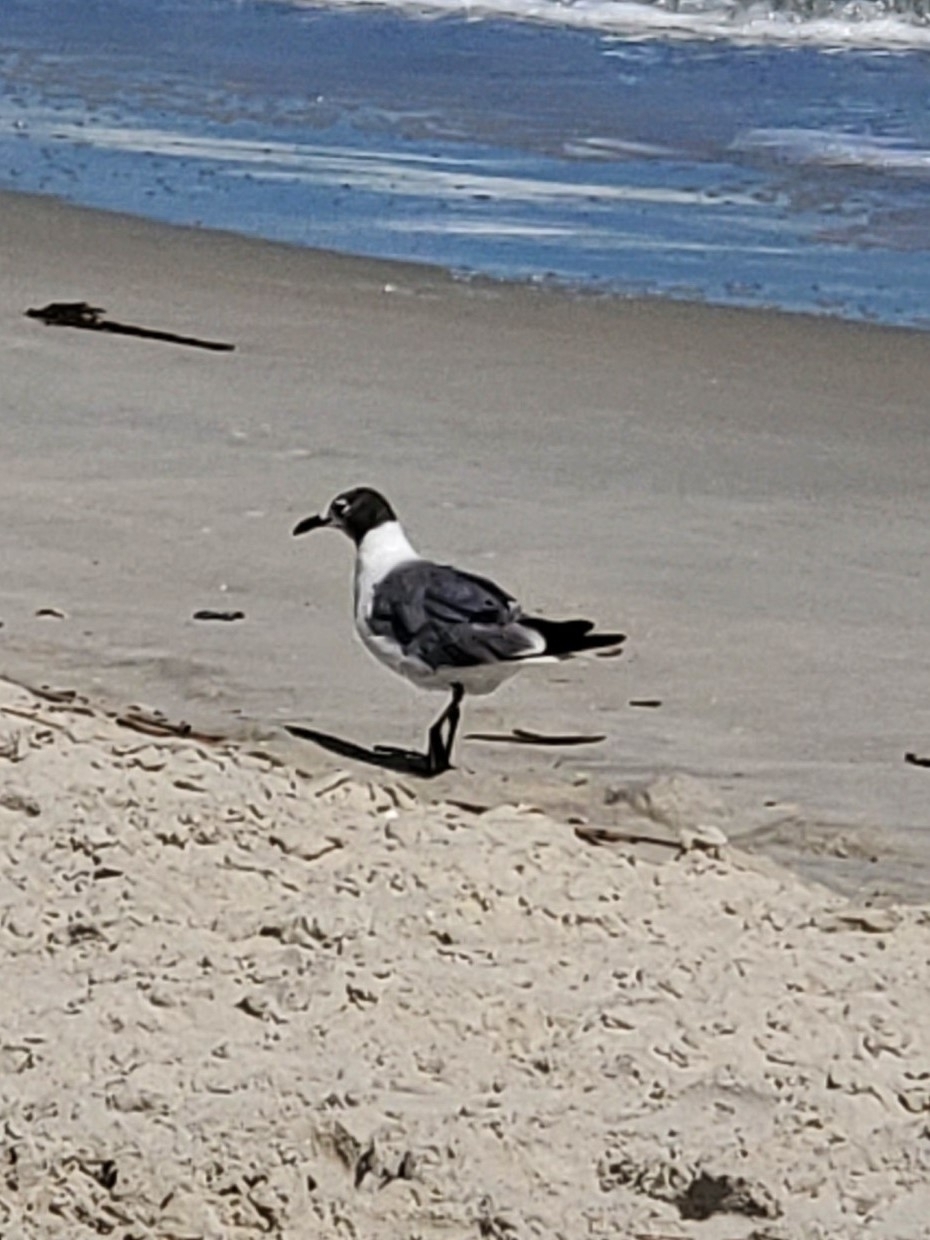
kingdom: Animalia
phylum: Chordata
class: Aves
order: Charadriiformes
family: Laridae
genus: Leucophaeus
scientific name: Leucophaeus atricilla
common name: Laughing gull
